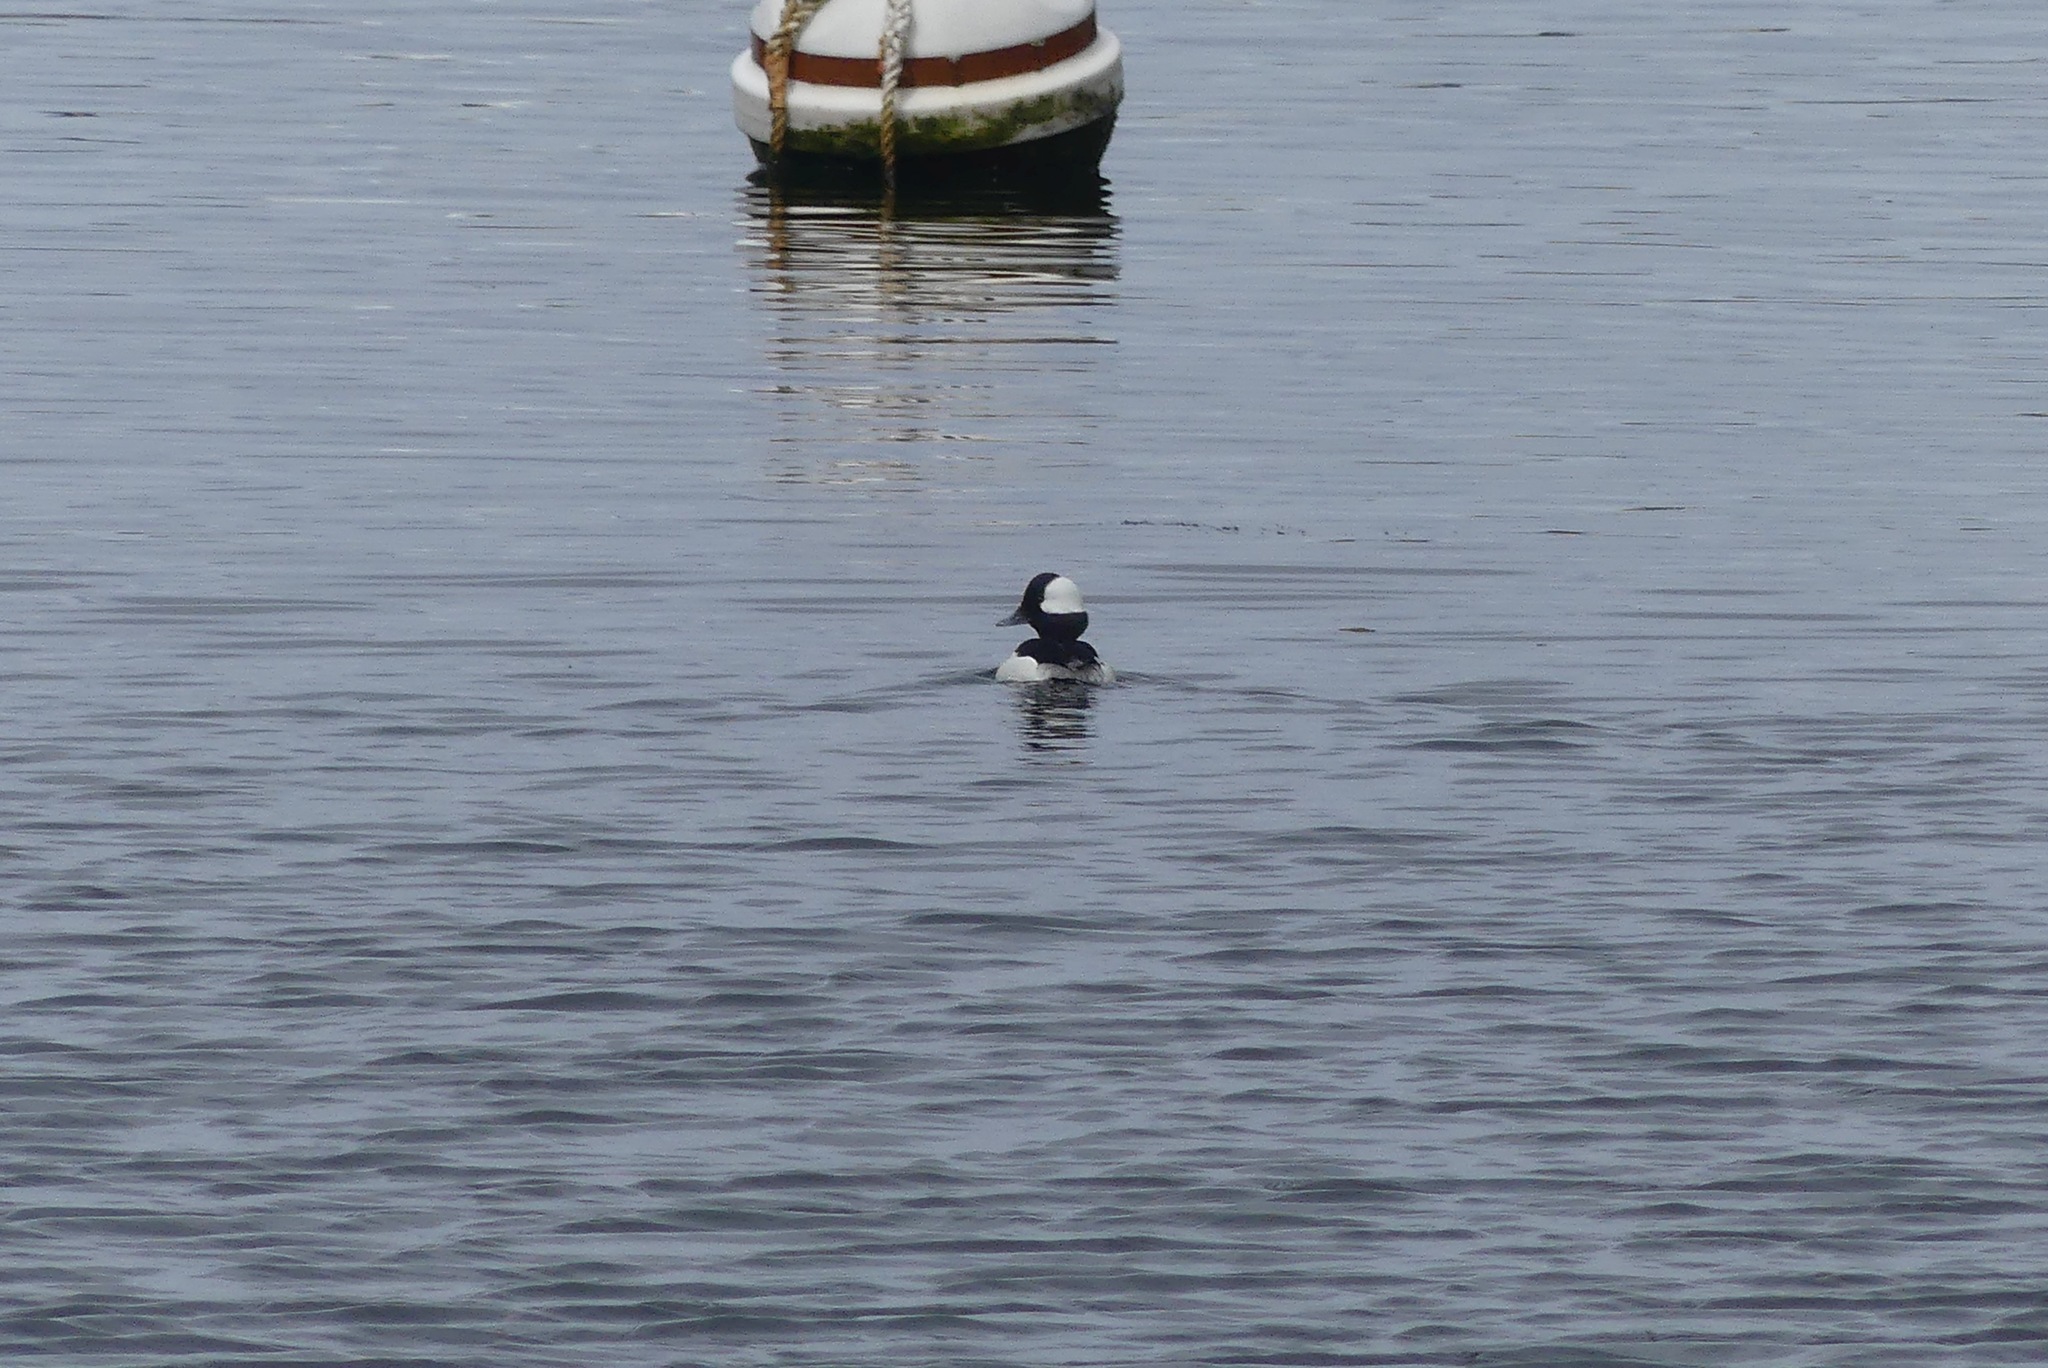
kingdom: Animalia
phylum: Chordata
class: Aves
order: Anseriformes
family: Anatidae
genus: Bucephala
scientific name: Bucephala albeola
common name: Bufflehead
